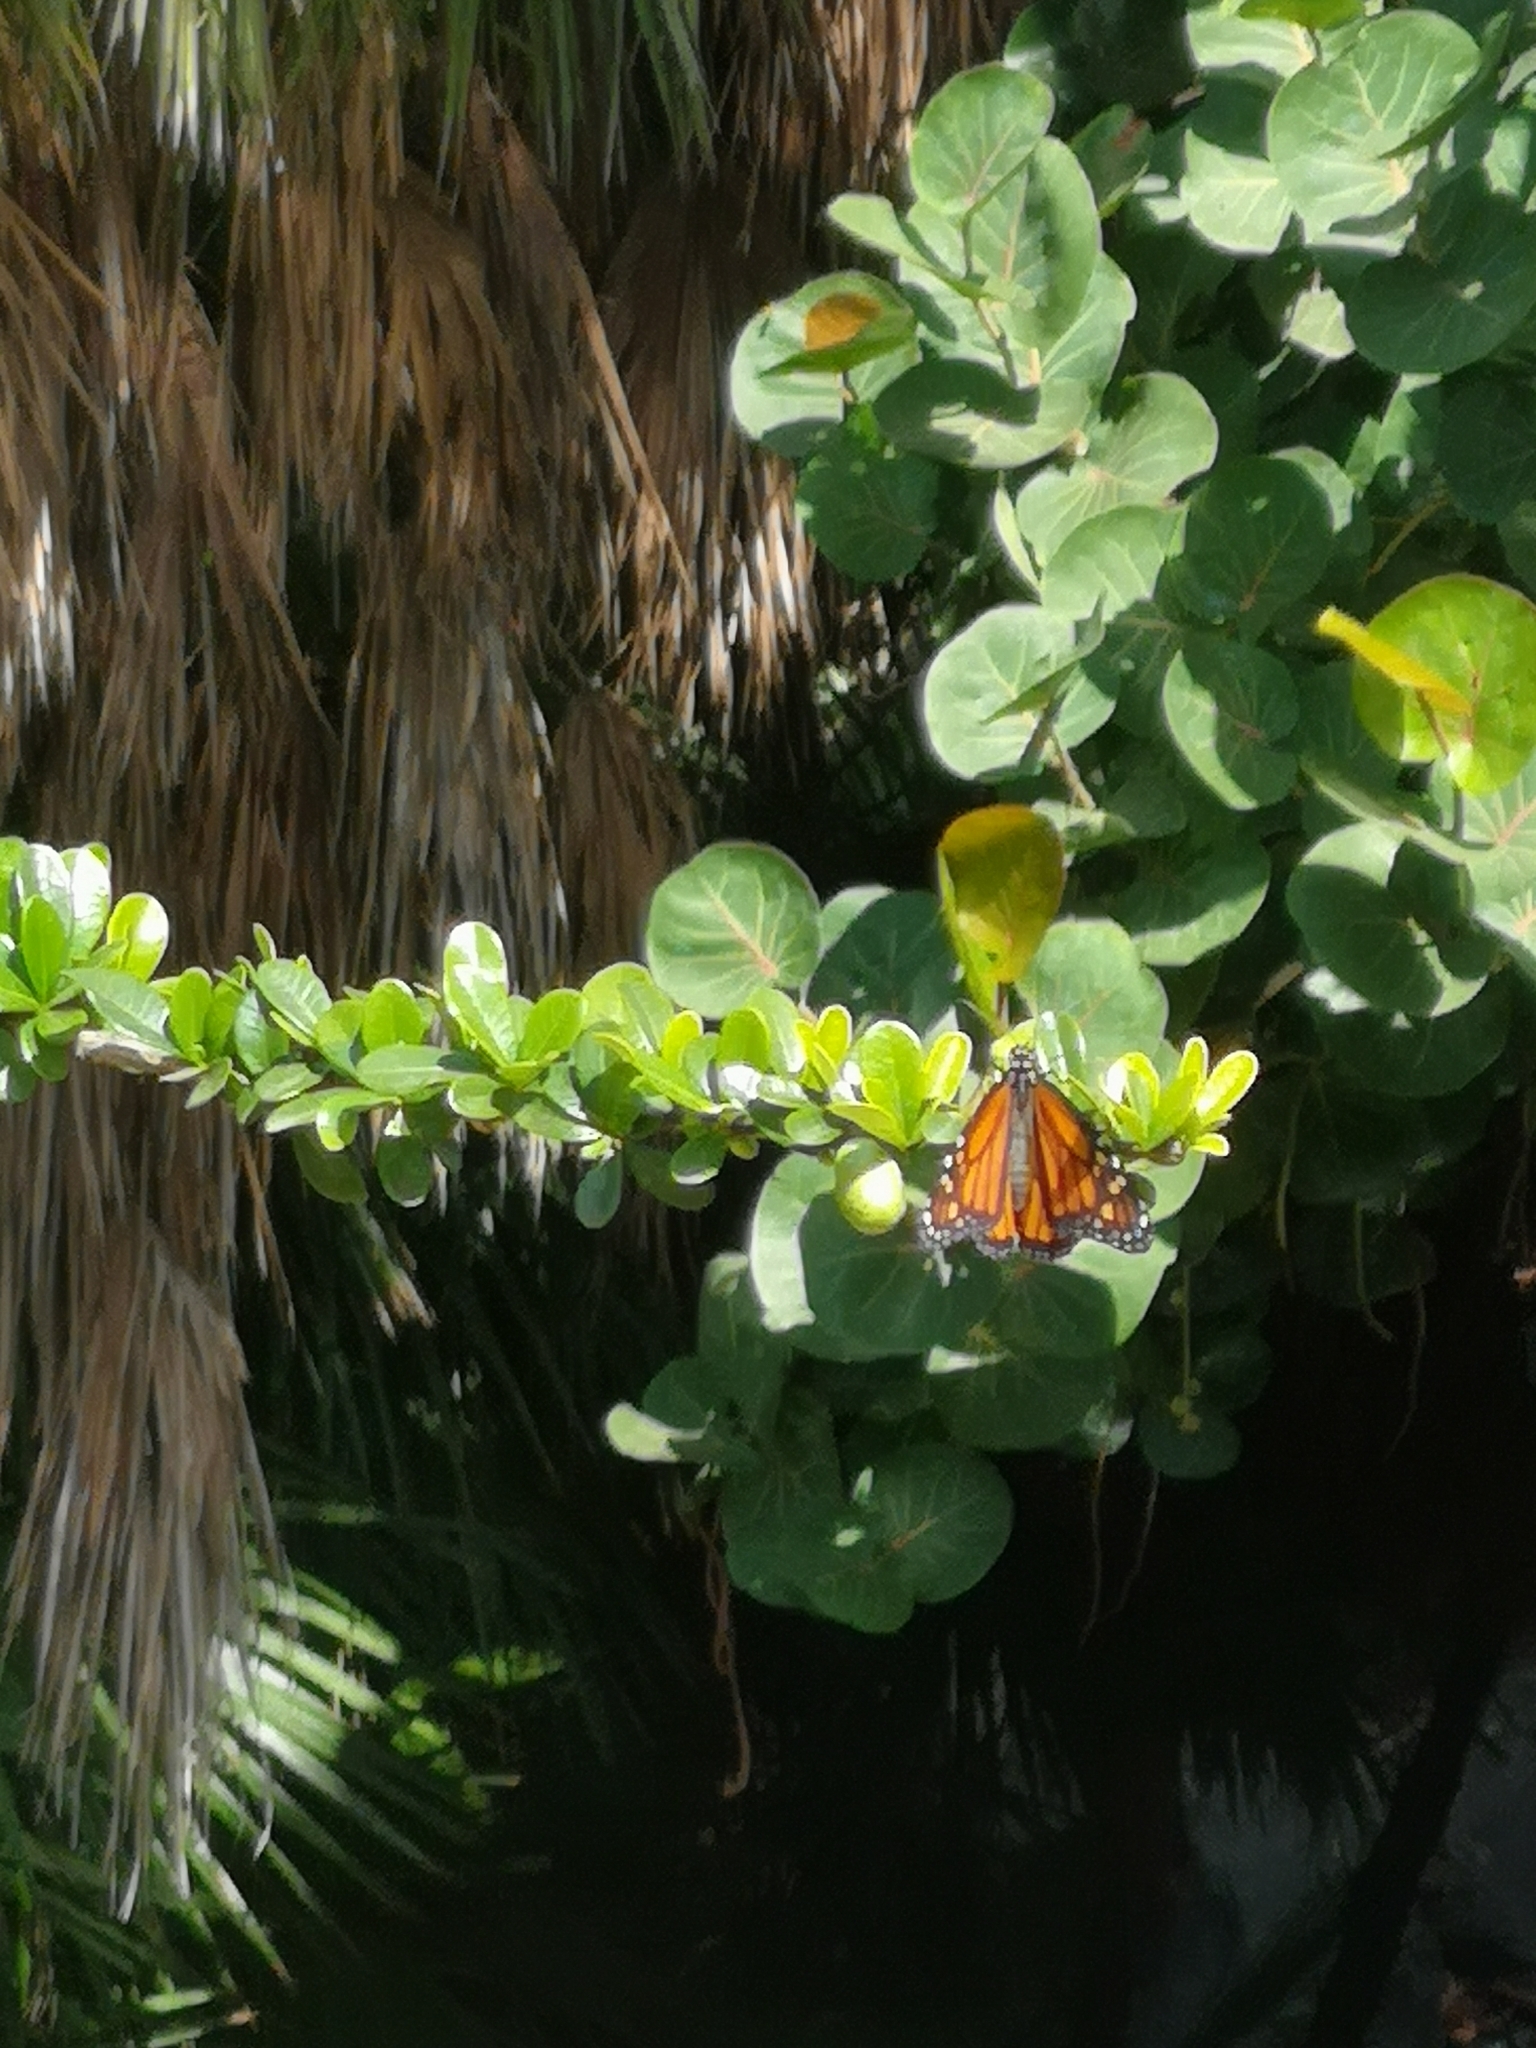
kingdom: Animalia
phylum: Arthropoda
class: Insecta
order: Lepidoptera
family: Nymphalidae
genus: Danaus
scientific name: Danaus plexippus
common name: Monarch
